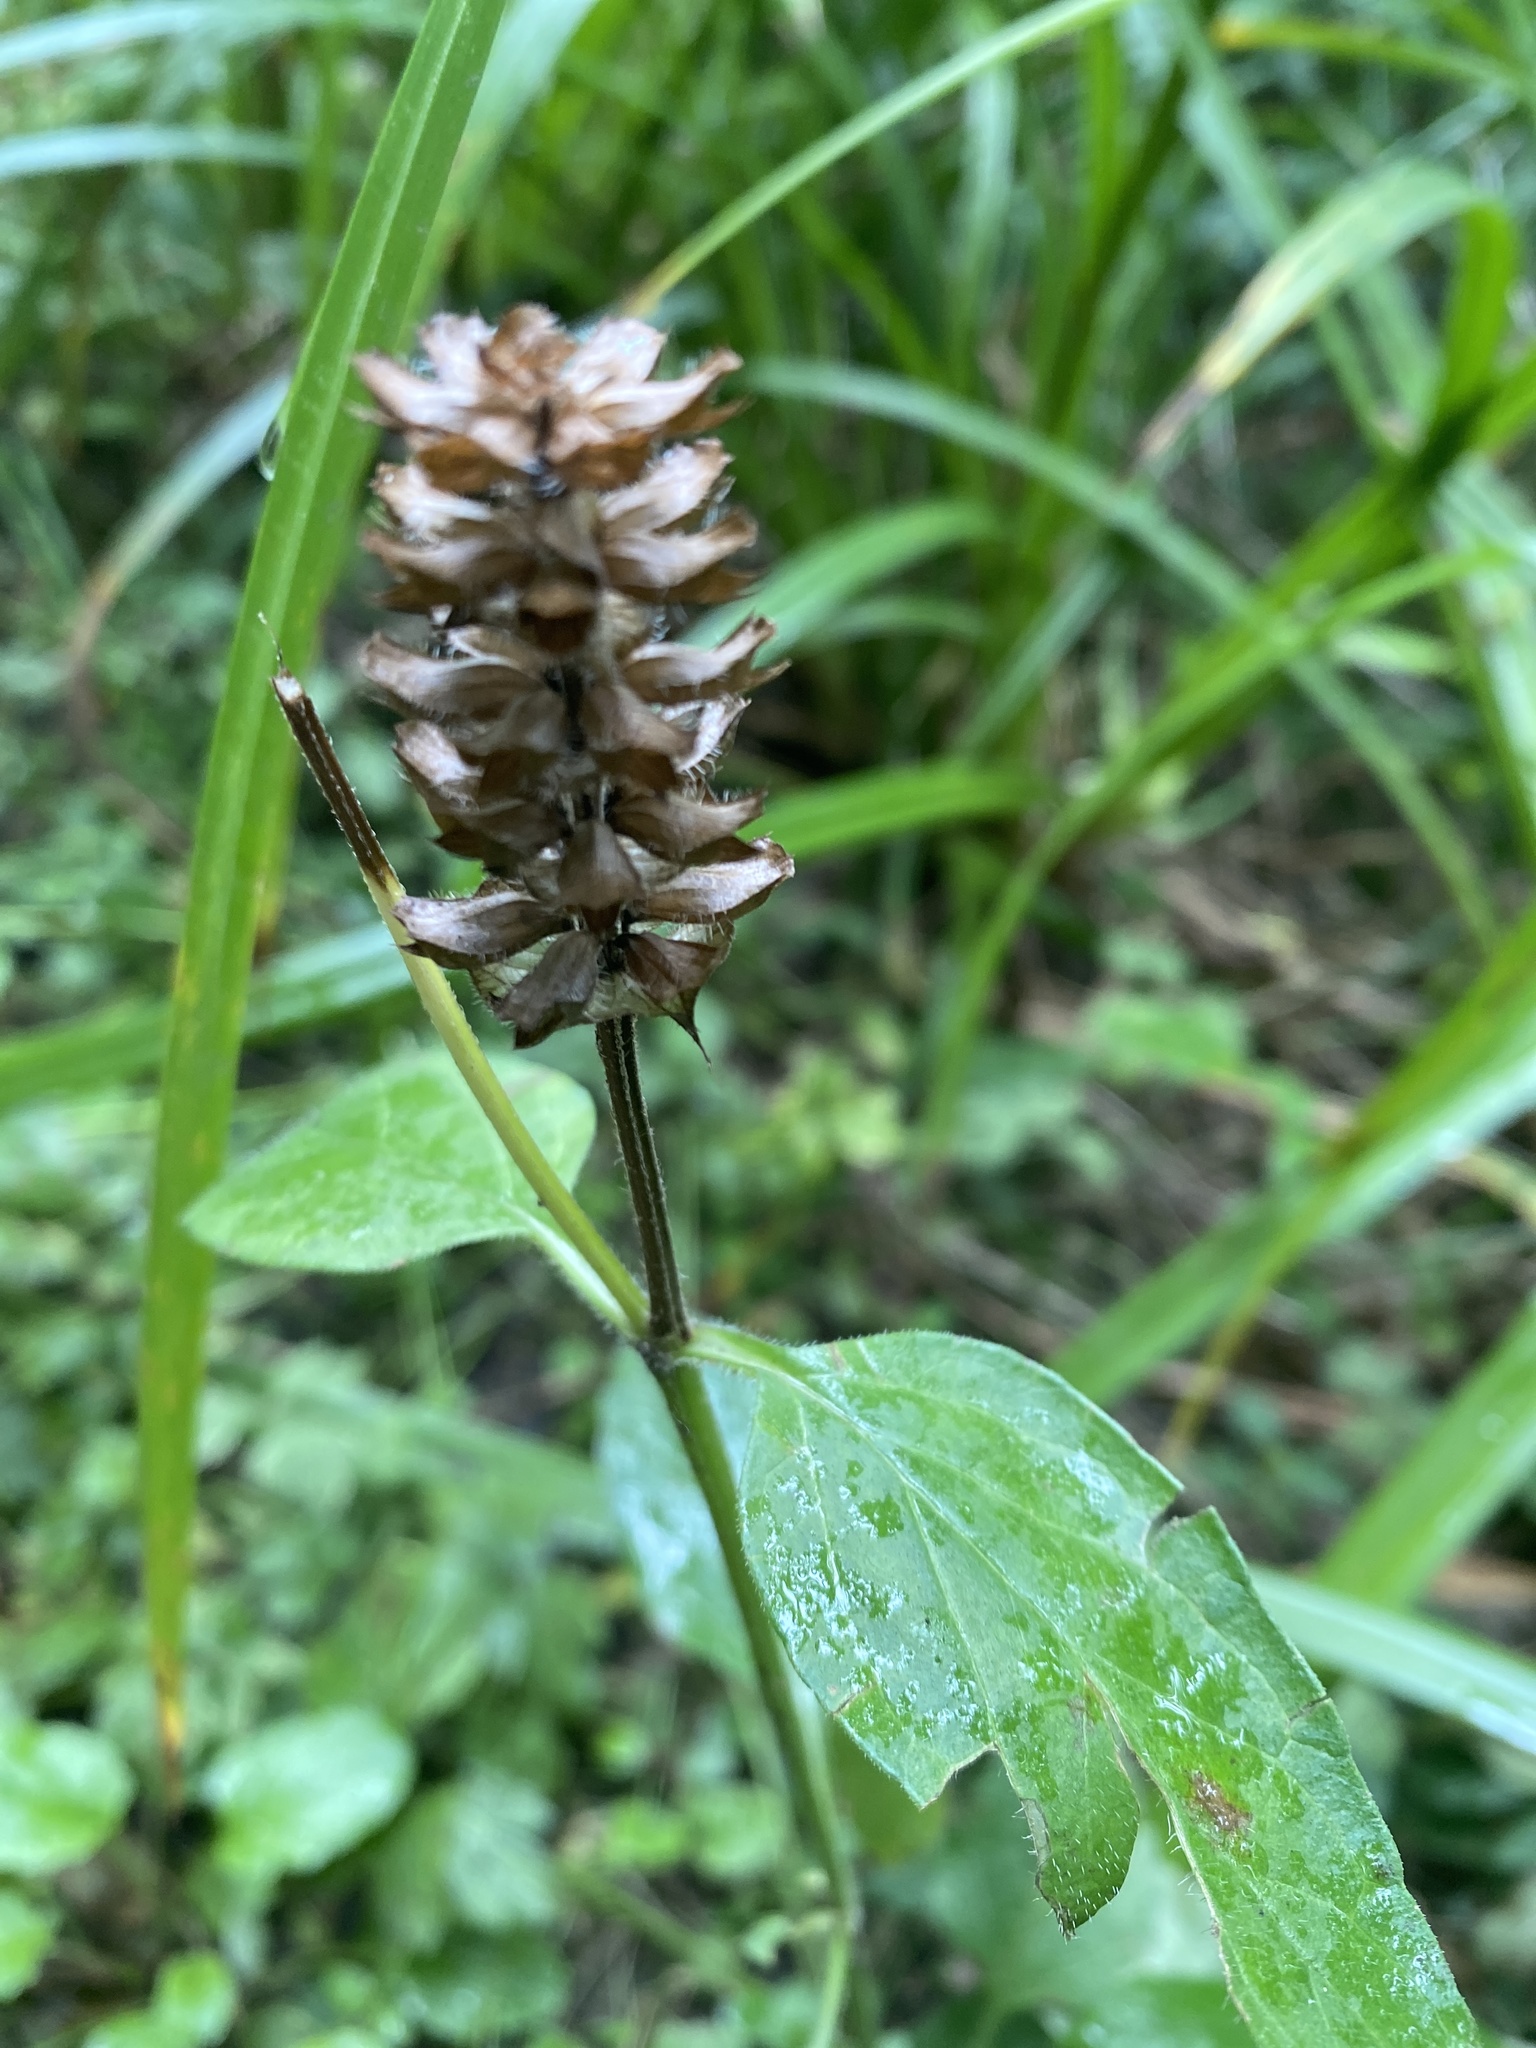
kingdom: Plantae
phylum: Tracheophyta
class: Magnoliopsida
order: Lamiales
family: Lamiaceae
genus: Prunella
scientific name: Prunella vulgaris
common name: Heal-all
